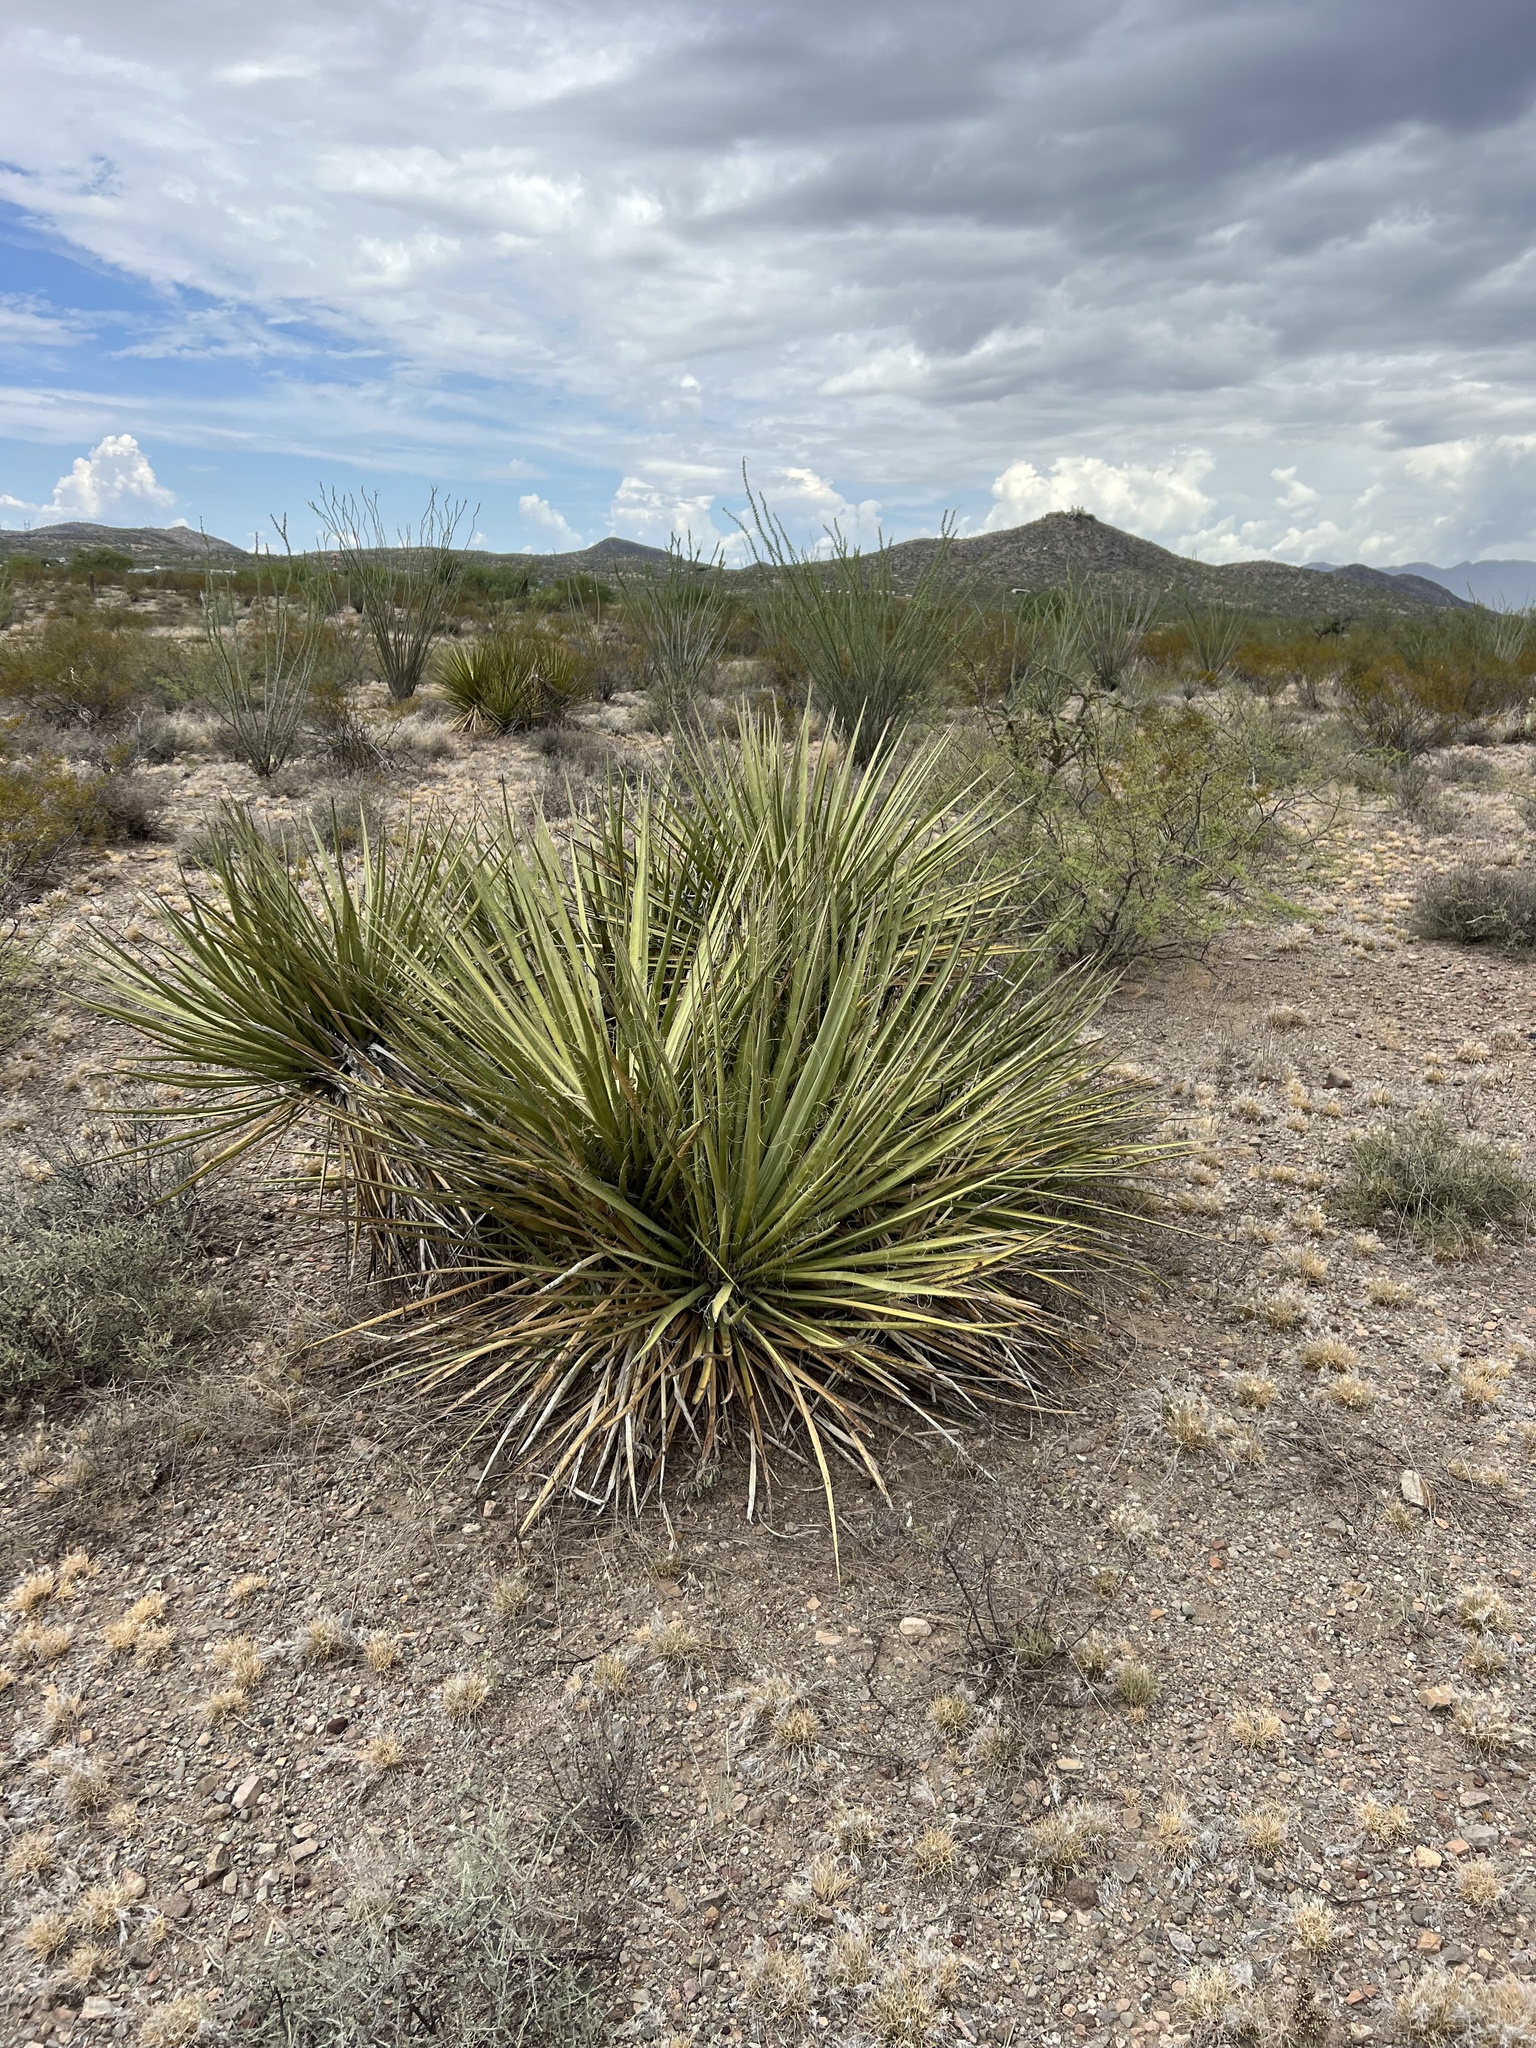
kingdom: Plantae
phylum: Tracheophyta
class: Liliopsida
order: Asparagales
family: Asparagaceae
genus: Yucca
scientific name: Yucca baccata
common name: Banana yucca
